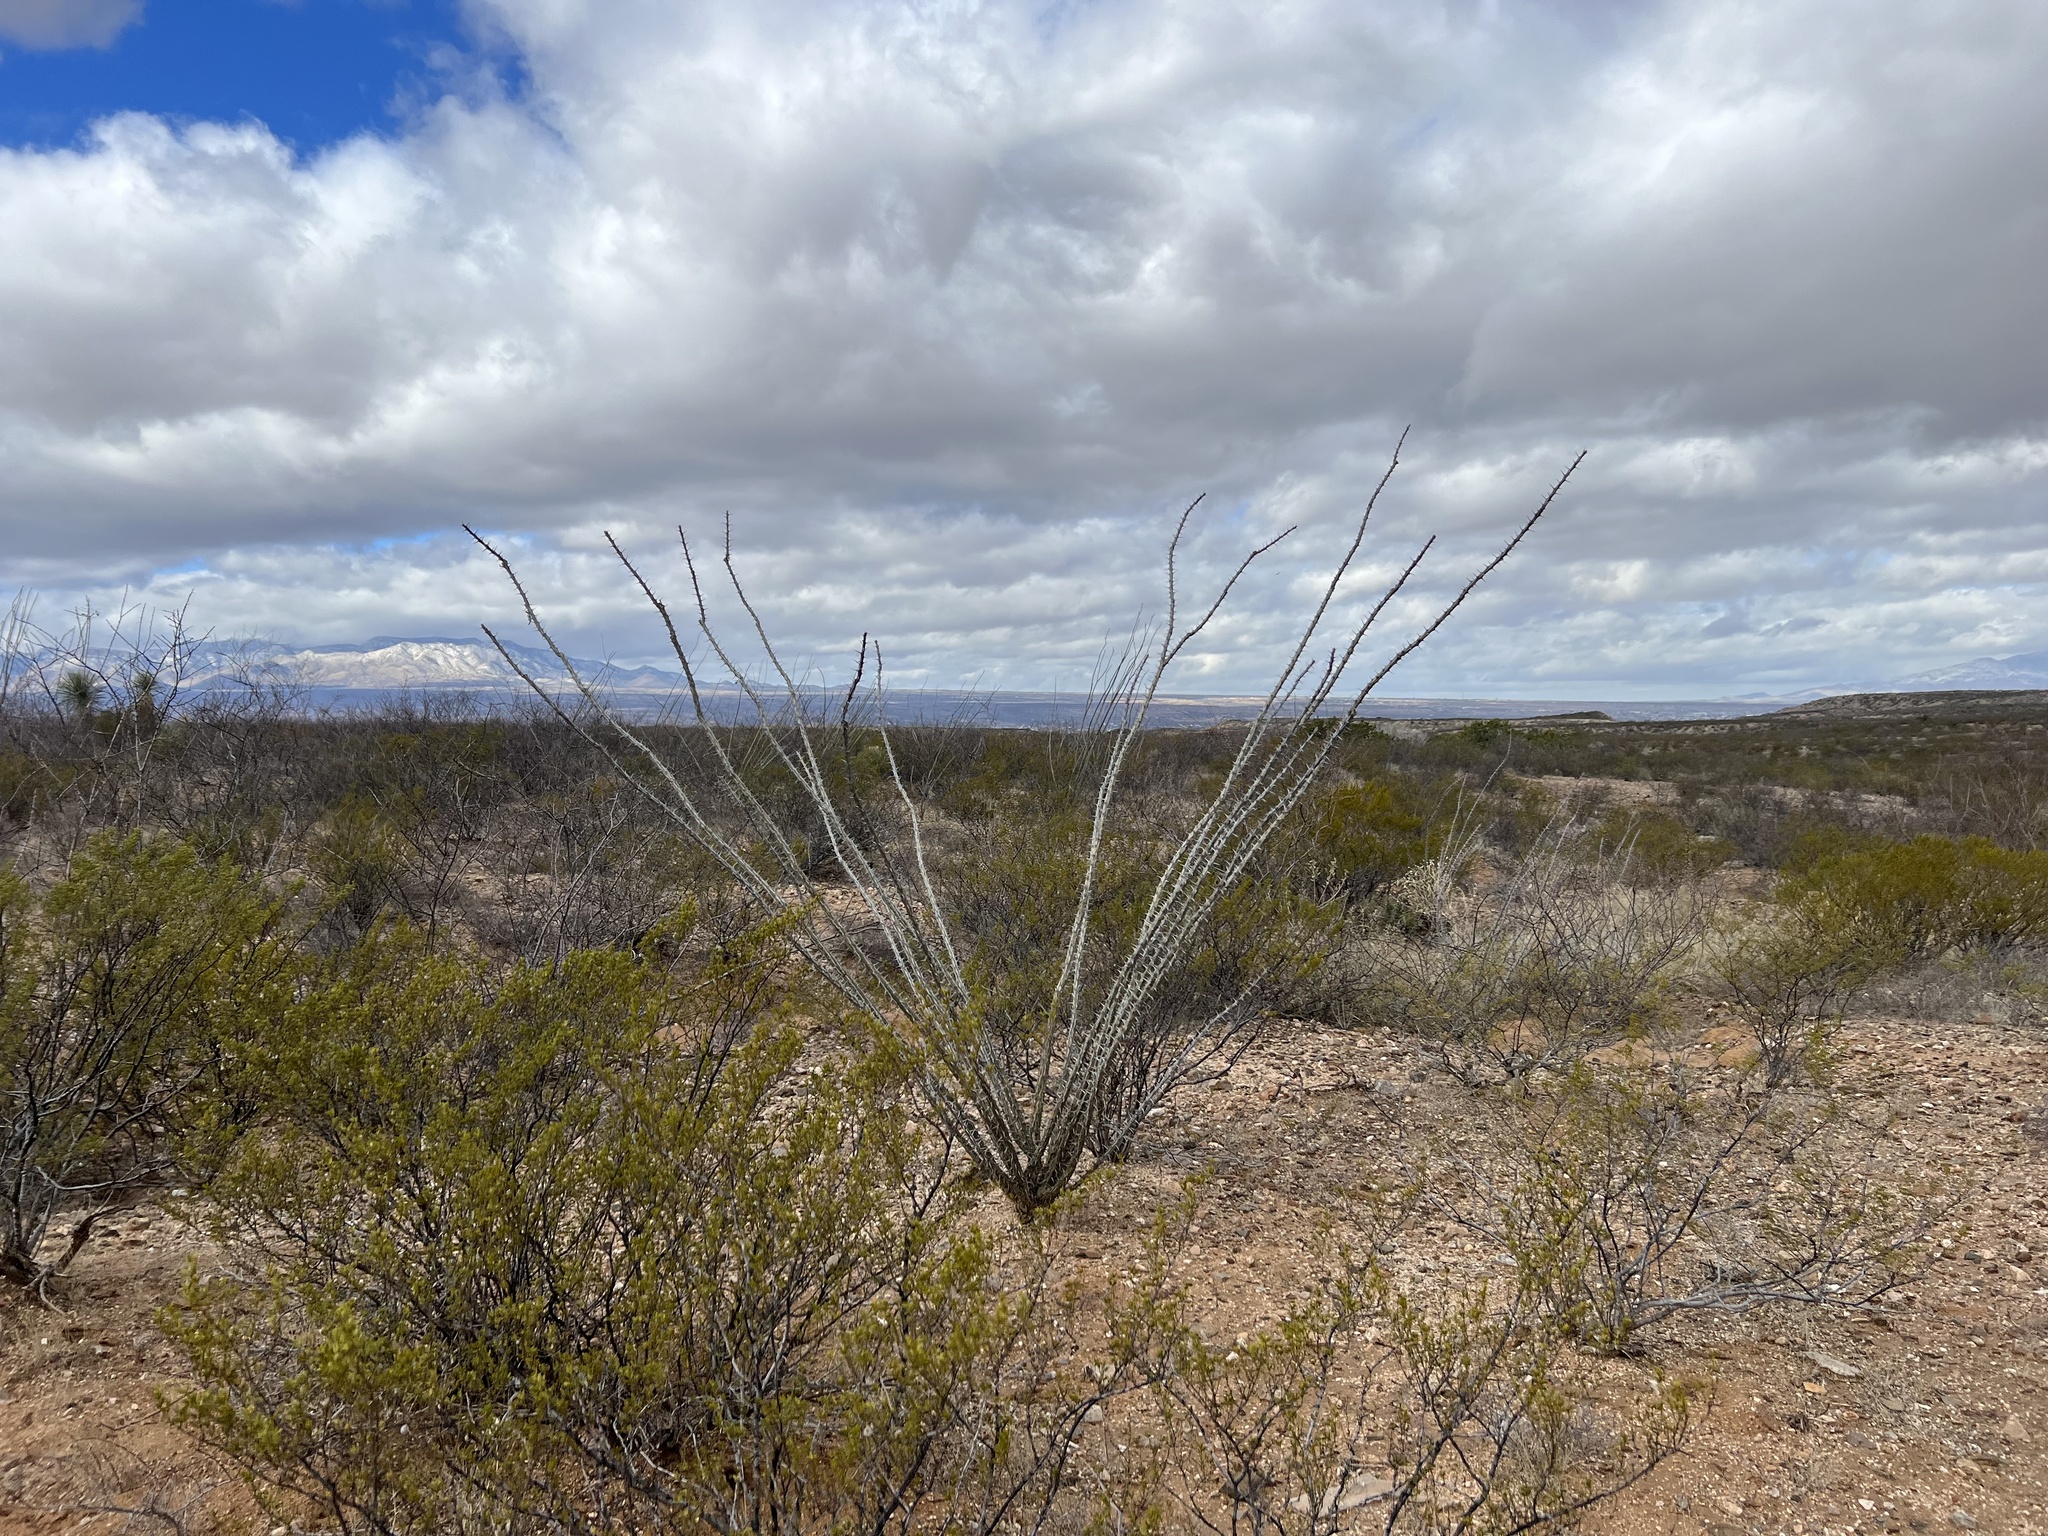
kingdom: Plantae
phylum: Tracheophyta
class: Magnoliopsida
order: Ericales
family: Fouquieriaceae
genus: Fouquieria
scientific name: Fouquieria splendens
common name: Vine-cactus
